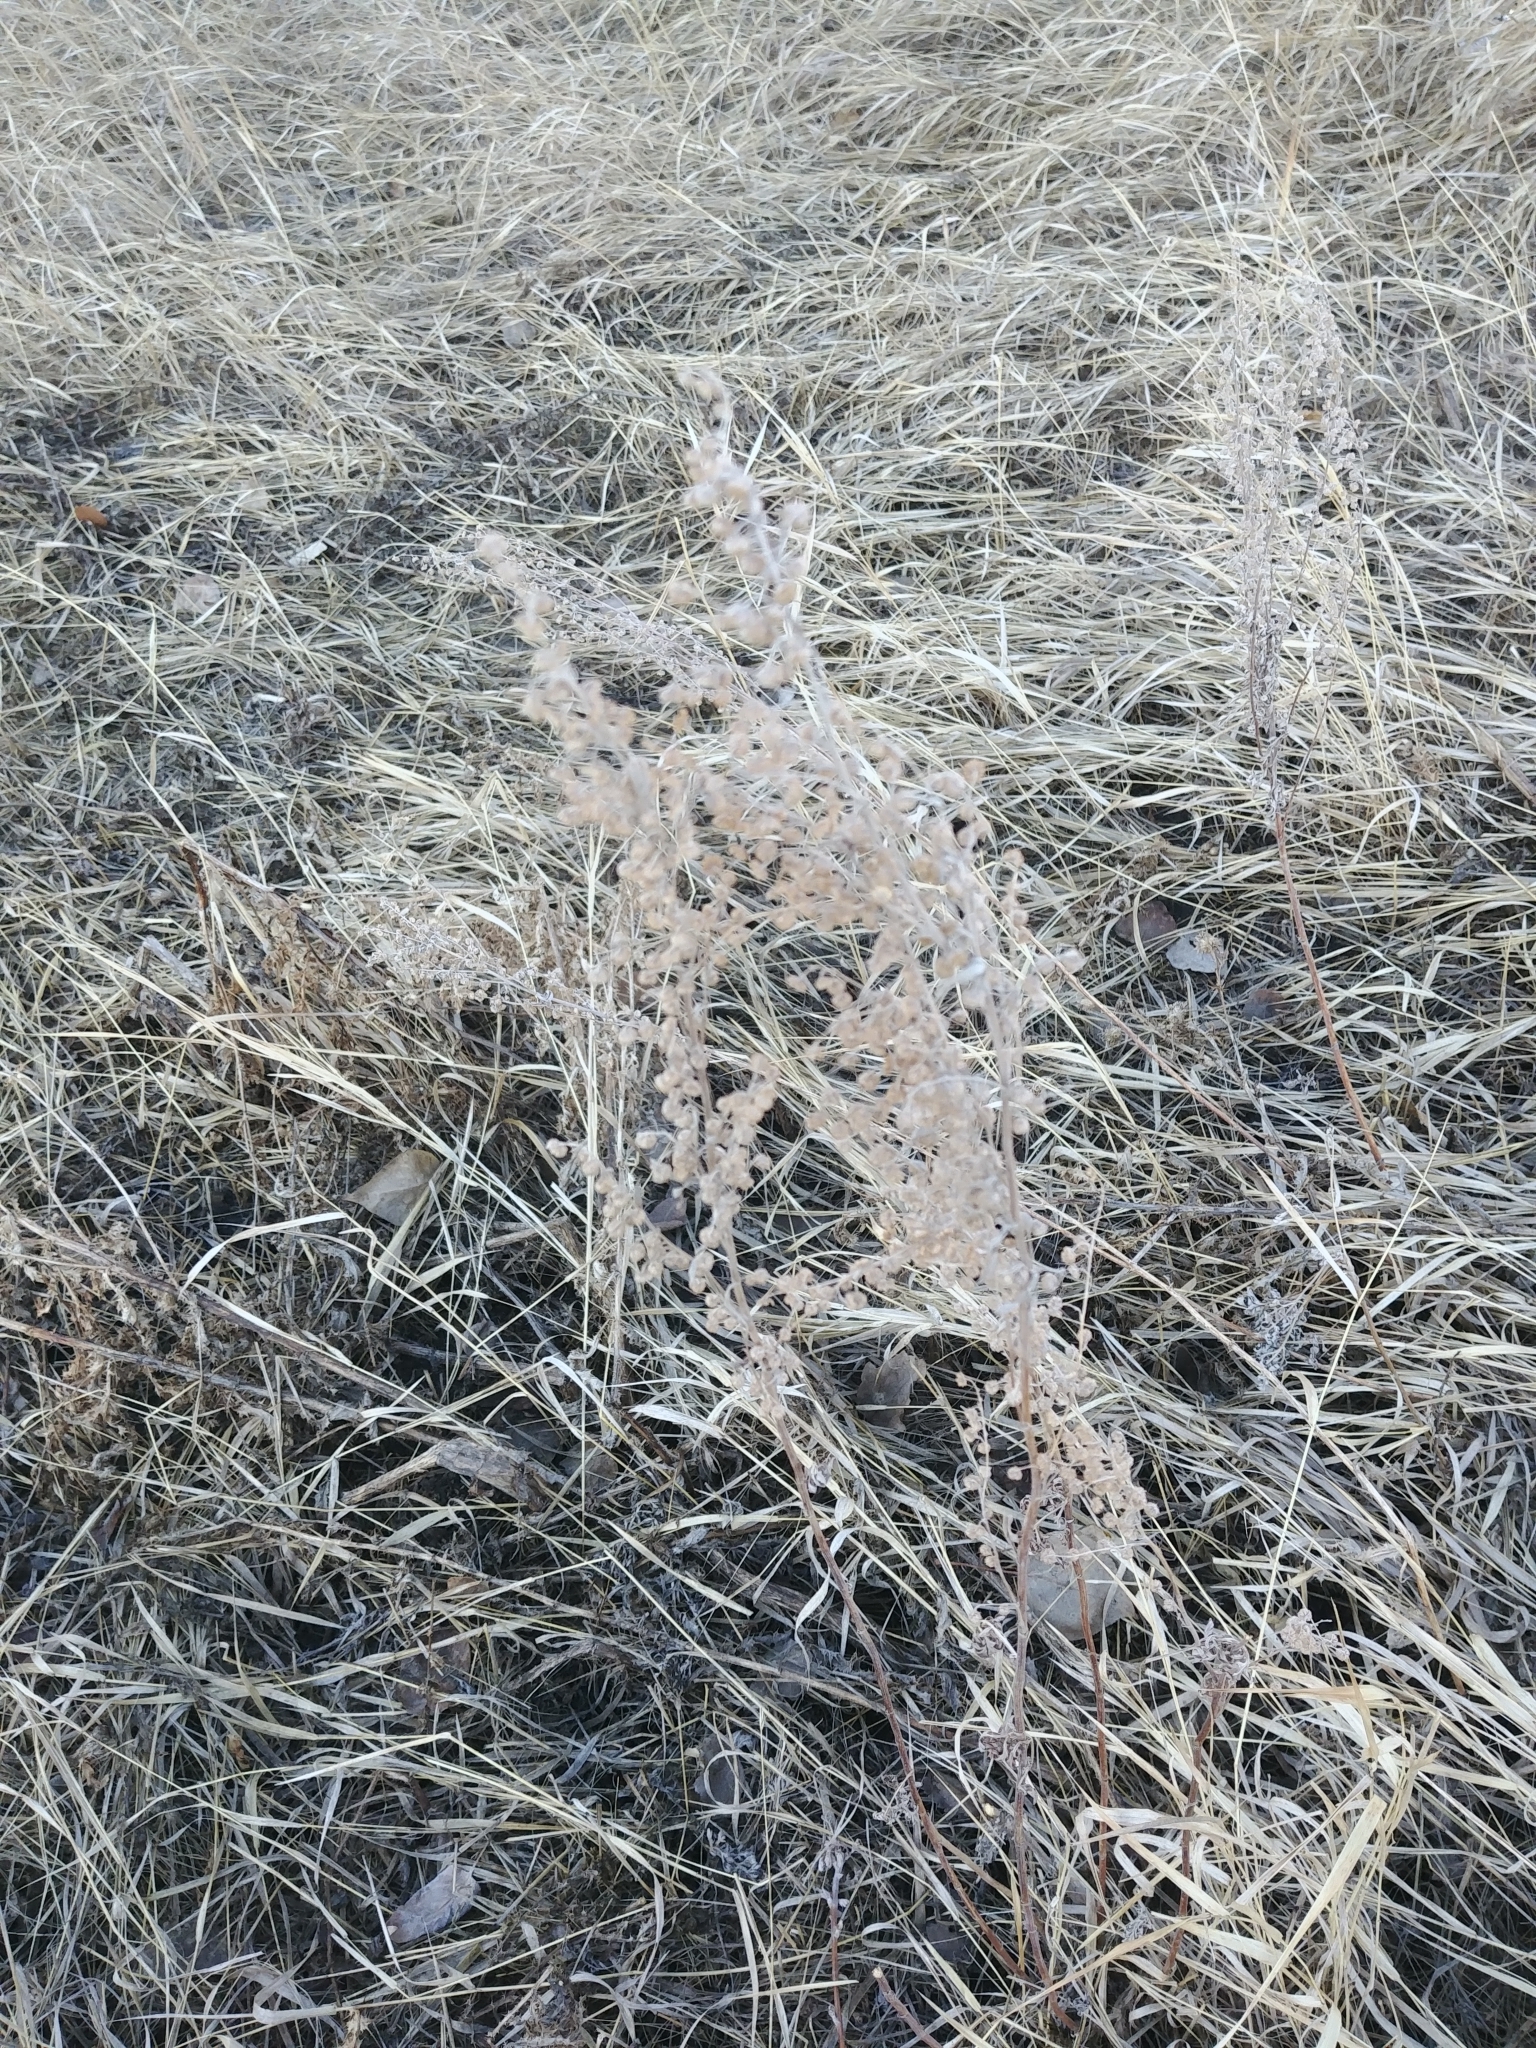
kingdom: Plantae
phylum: Tracheophyta
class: Magnoliopsida
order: Asterales
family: Asteraceae
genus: Artemisia
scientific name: Artemisia absinthium
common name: Wormwood
